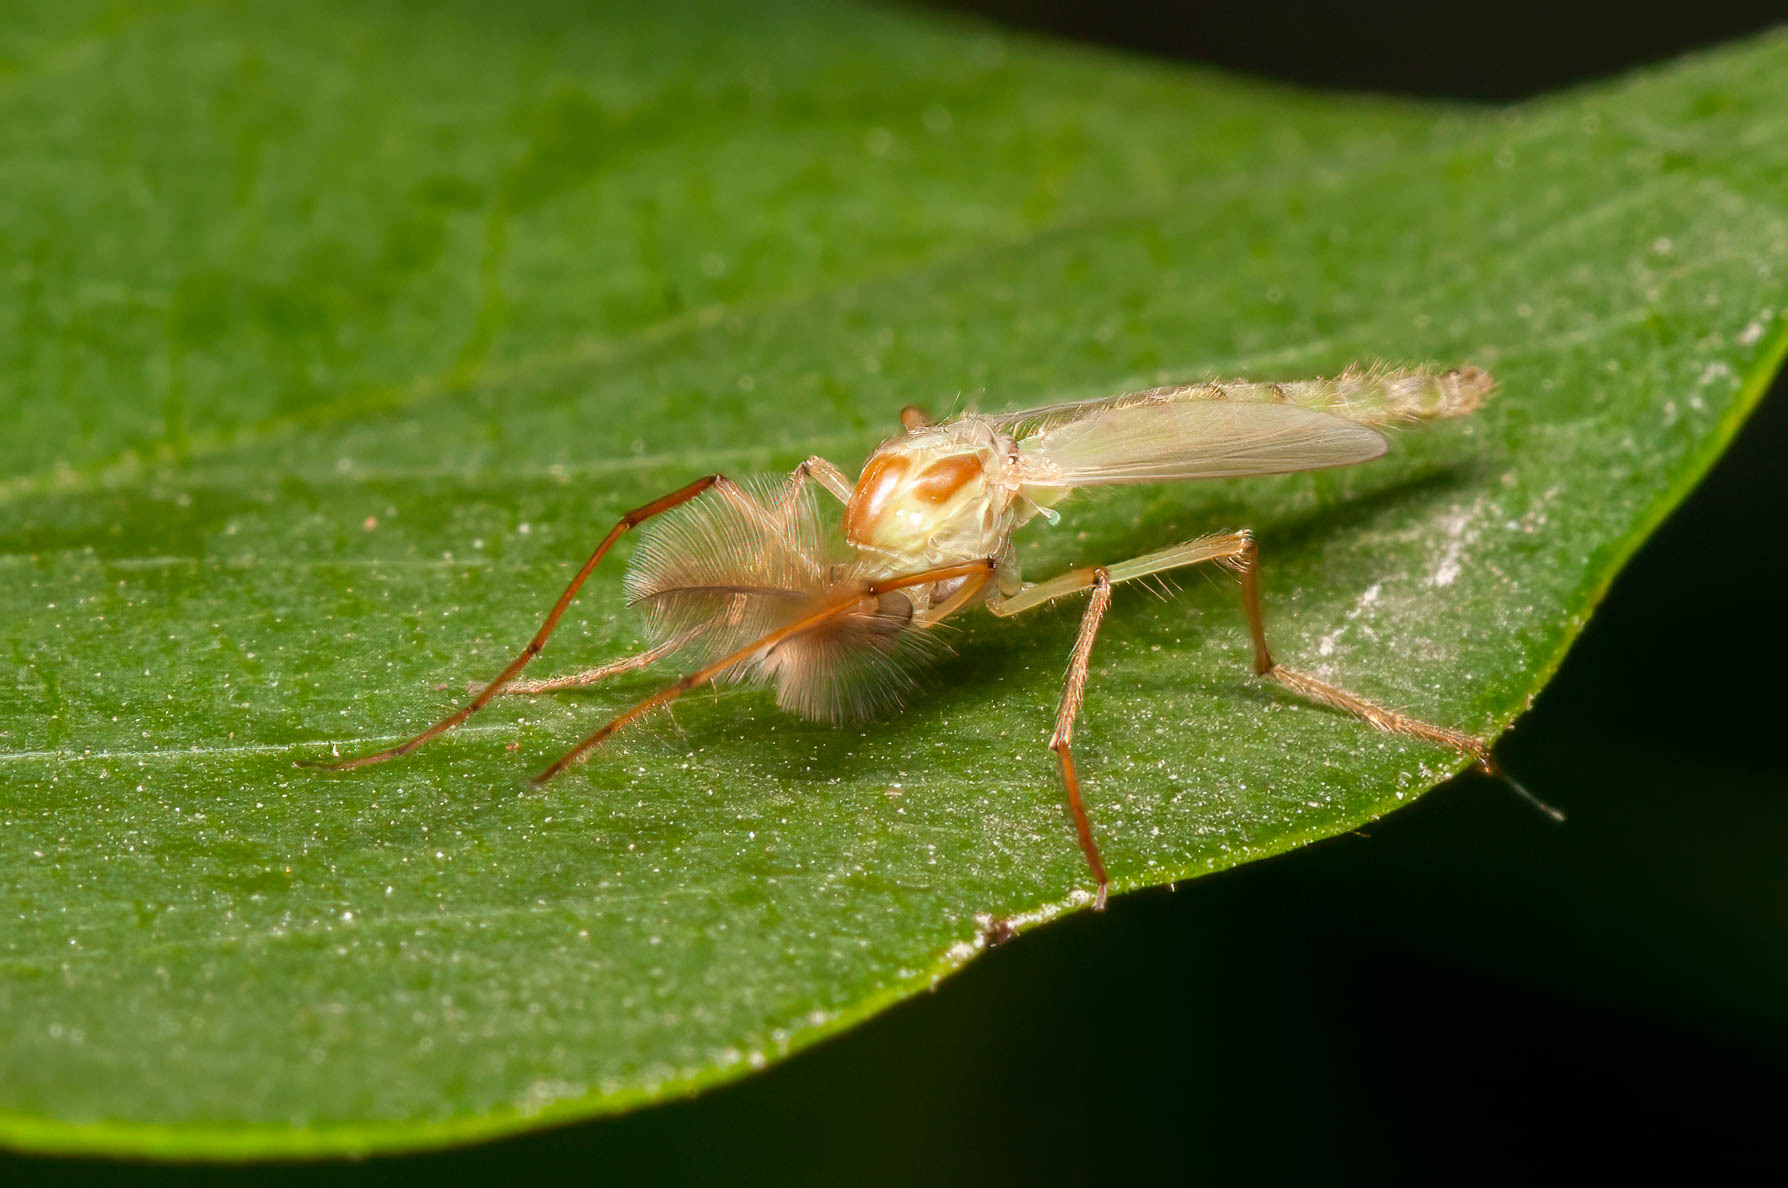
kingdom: Animalia
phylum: Arthropoda
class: Insecta
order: Diptera
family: Chironomidae
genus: Axarus
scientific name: Axarus
